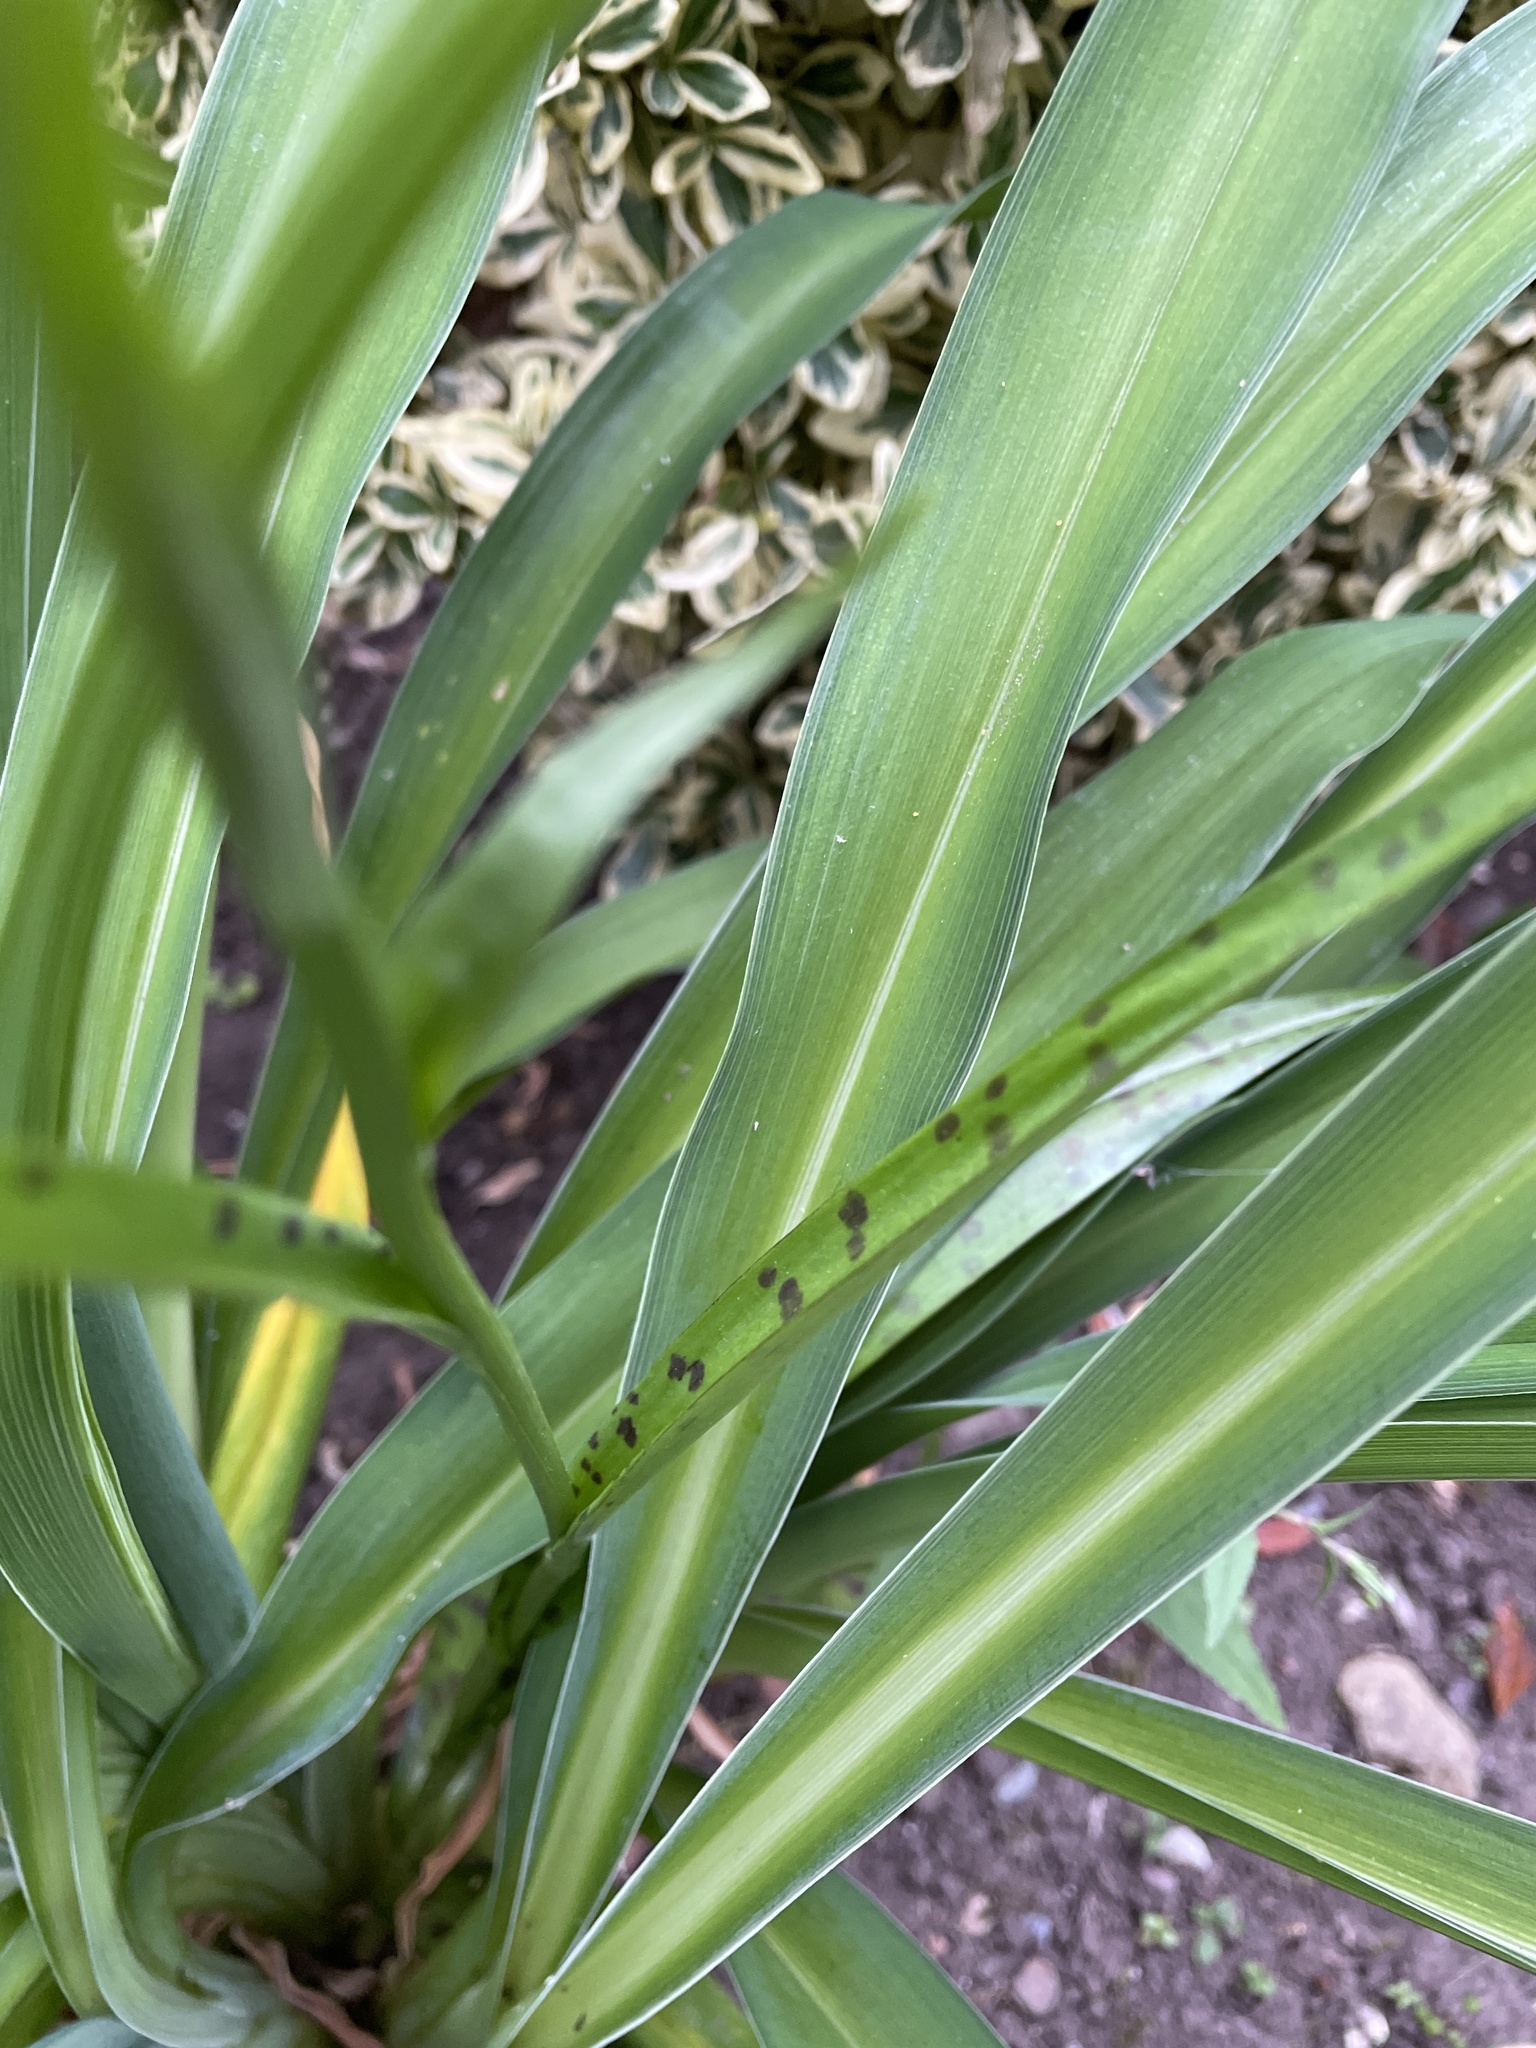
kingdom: Plantae
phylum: Tracheophyta
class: Liliopsida
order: Asparagales
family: Orchidaceae
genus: Dactylorhiza
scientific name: Dactylorhiza maculata
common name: Heath spotted-orchid
